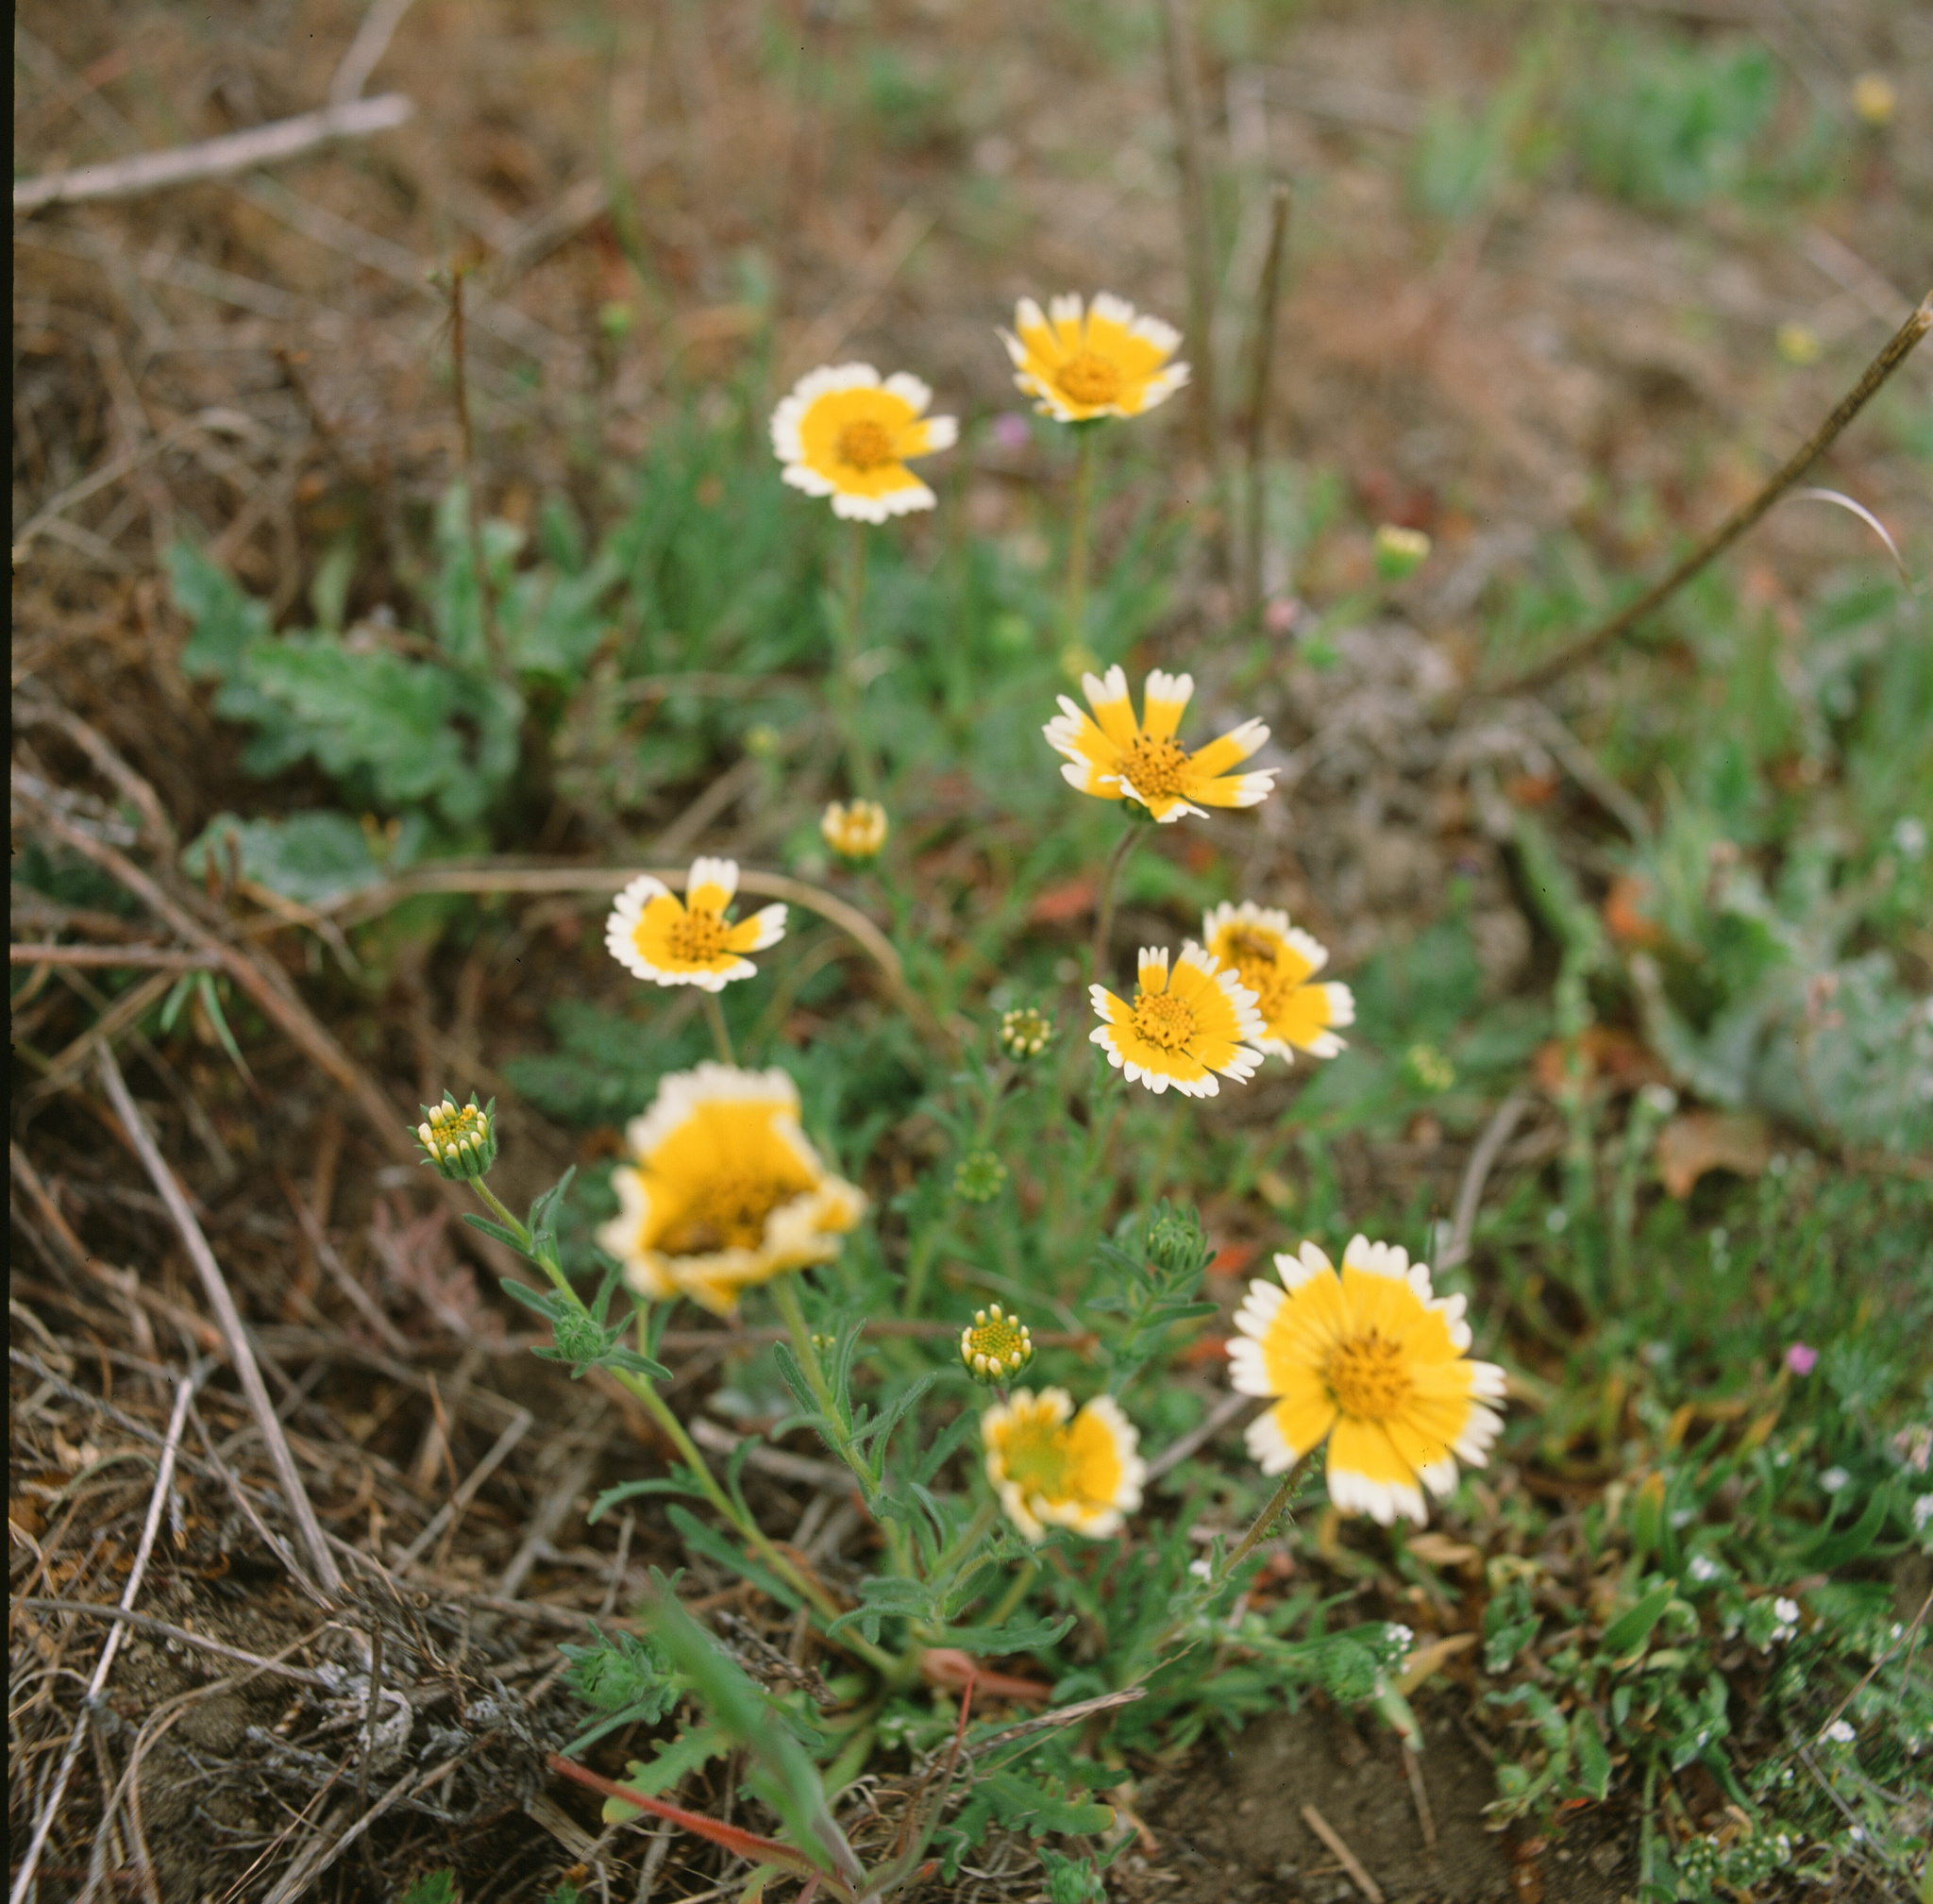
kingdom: Plantae
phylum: Tracheophyta
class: Magnoliopsida
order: Asterales
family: Asteraceae
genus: Layia
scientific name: Layia platyglossa
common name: Tidy-tips
